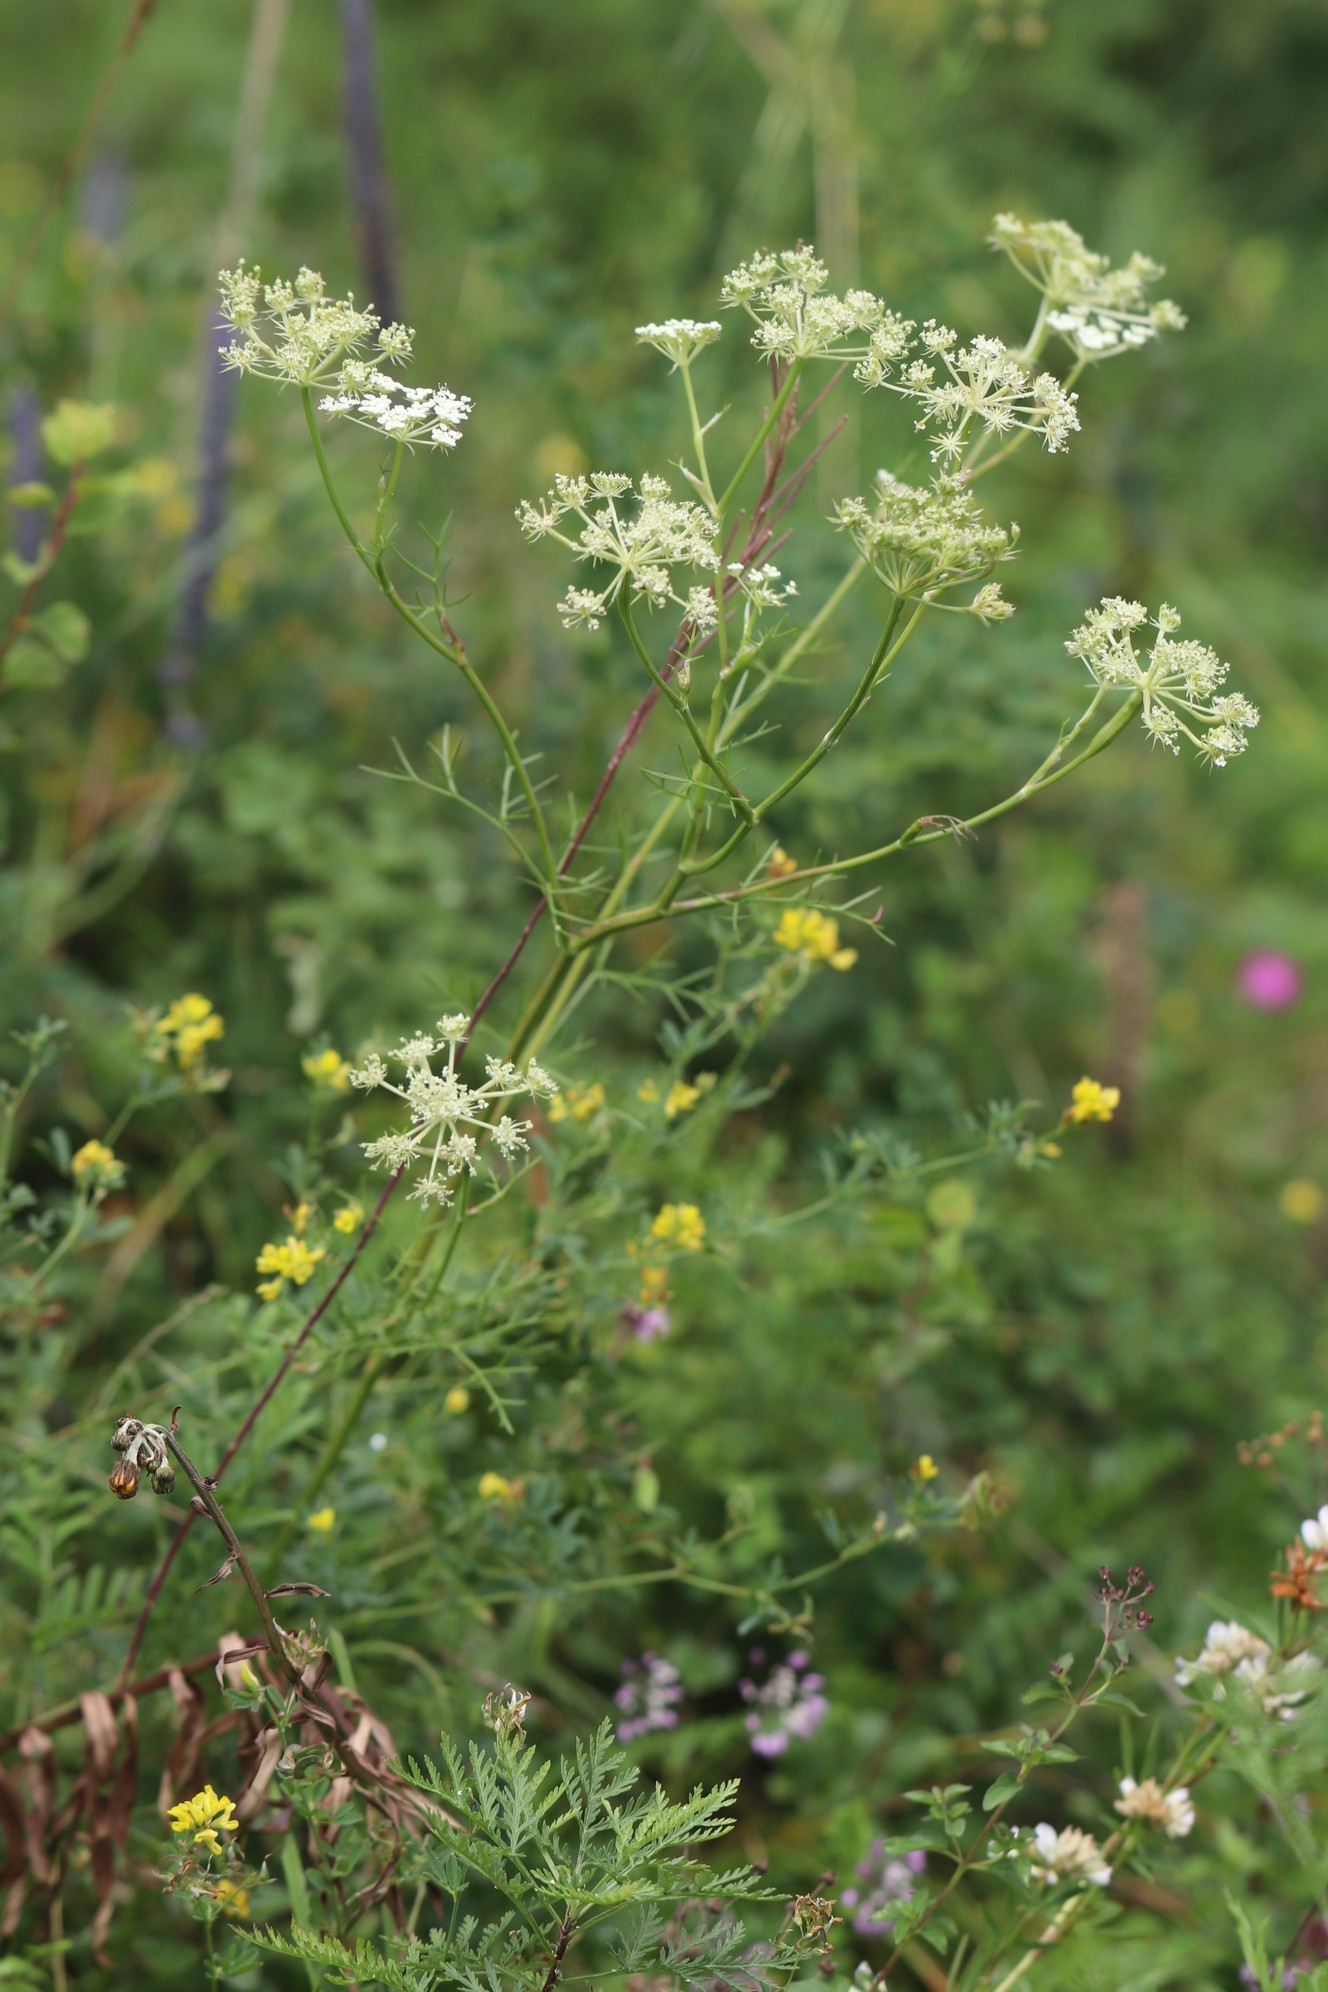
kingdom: Plantae
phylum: Tracheophyta
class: Magnoliopsida
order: Apiales
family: Apiaceae
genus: Kitagawia
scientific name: Kitagawia baicalensis
